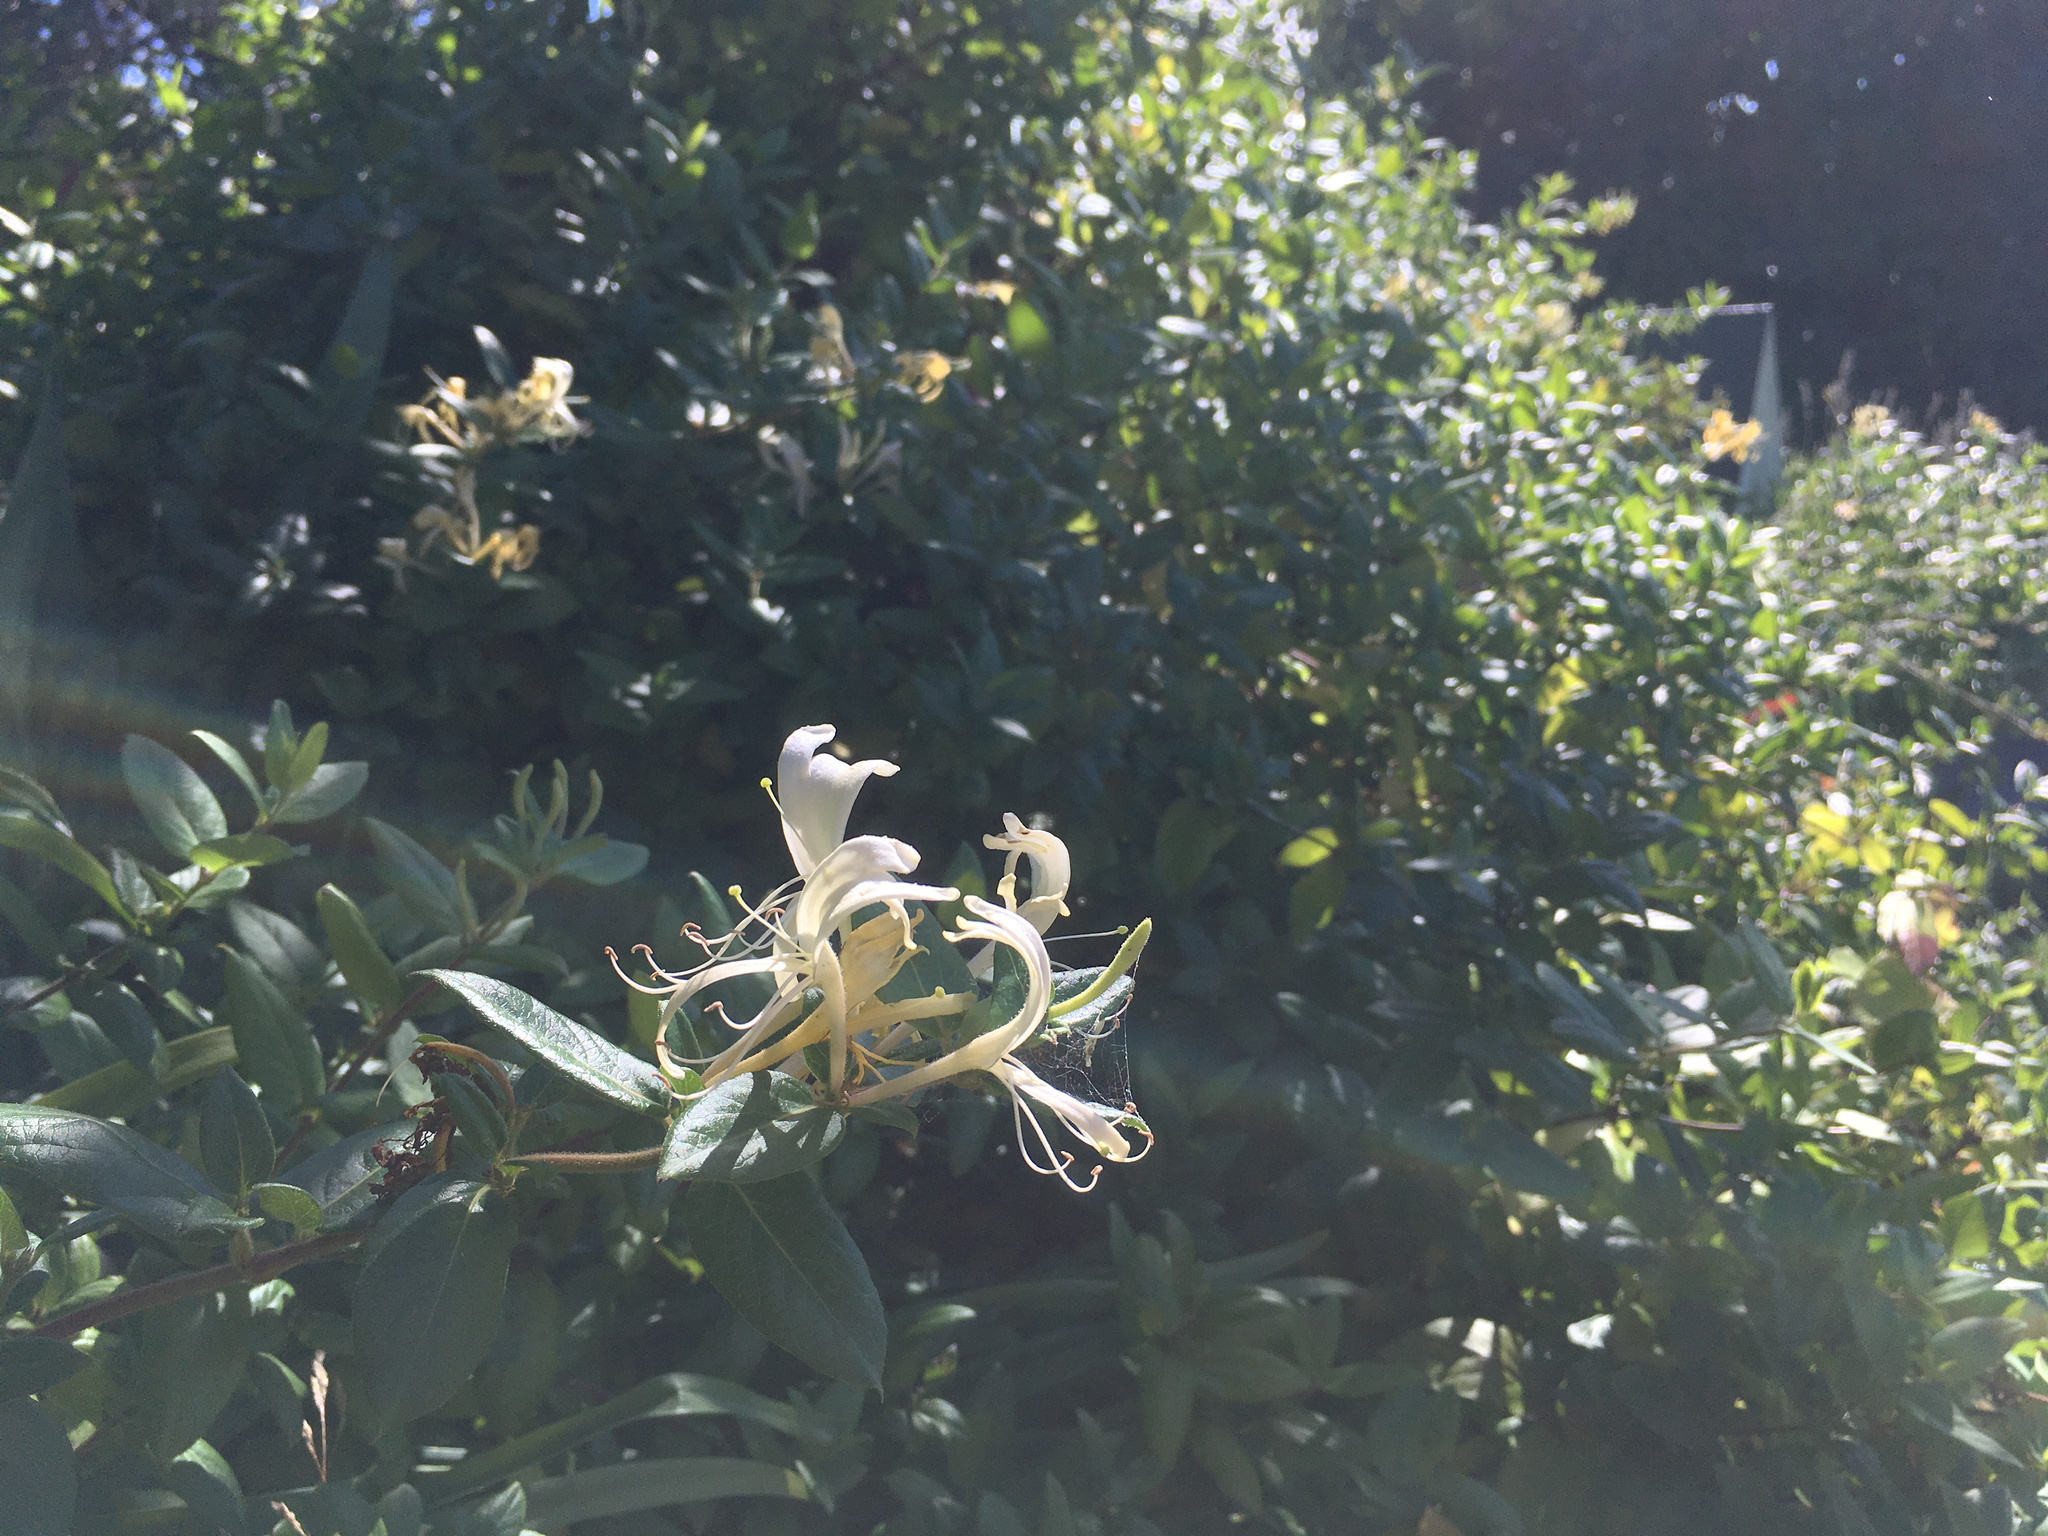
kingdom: Plantae
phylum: Tracheophyta
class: Magnoliopsida
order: Dipsacales
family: Caprifoliaceae
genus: Lonicera
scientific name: Lonicera japonica
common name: Japanese honeysuckle
